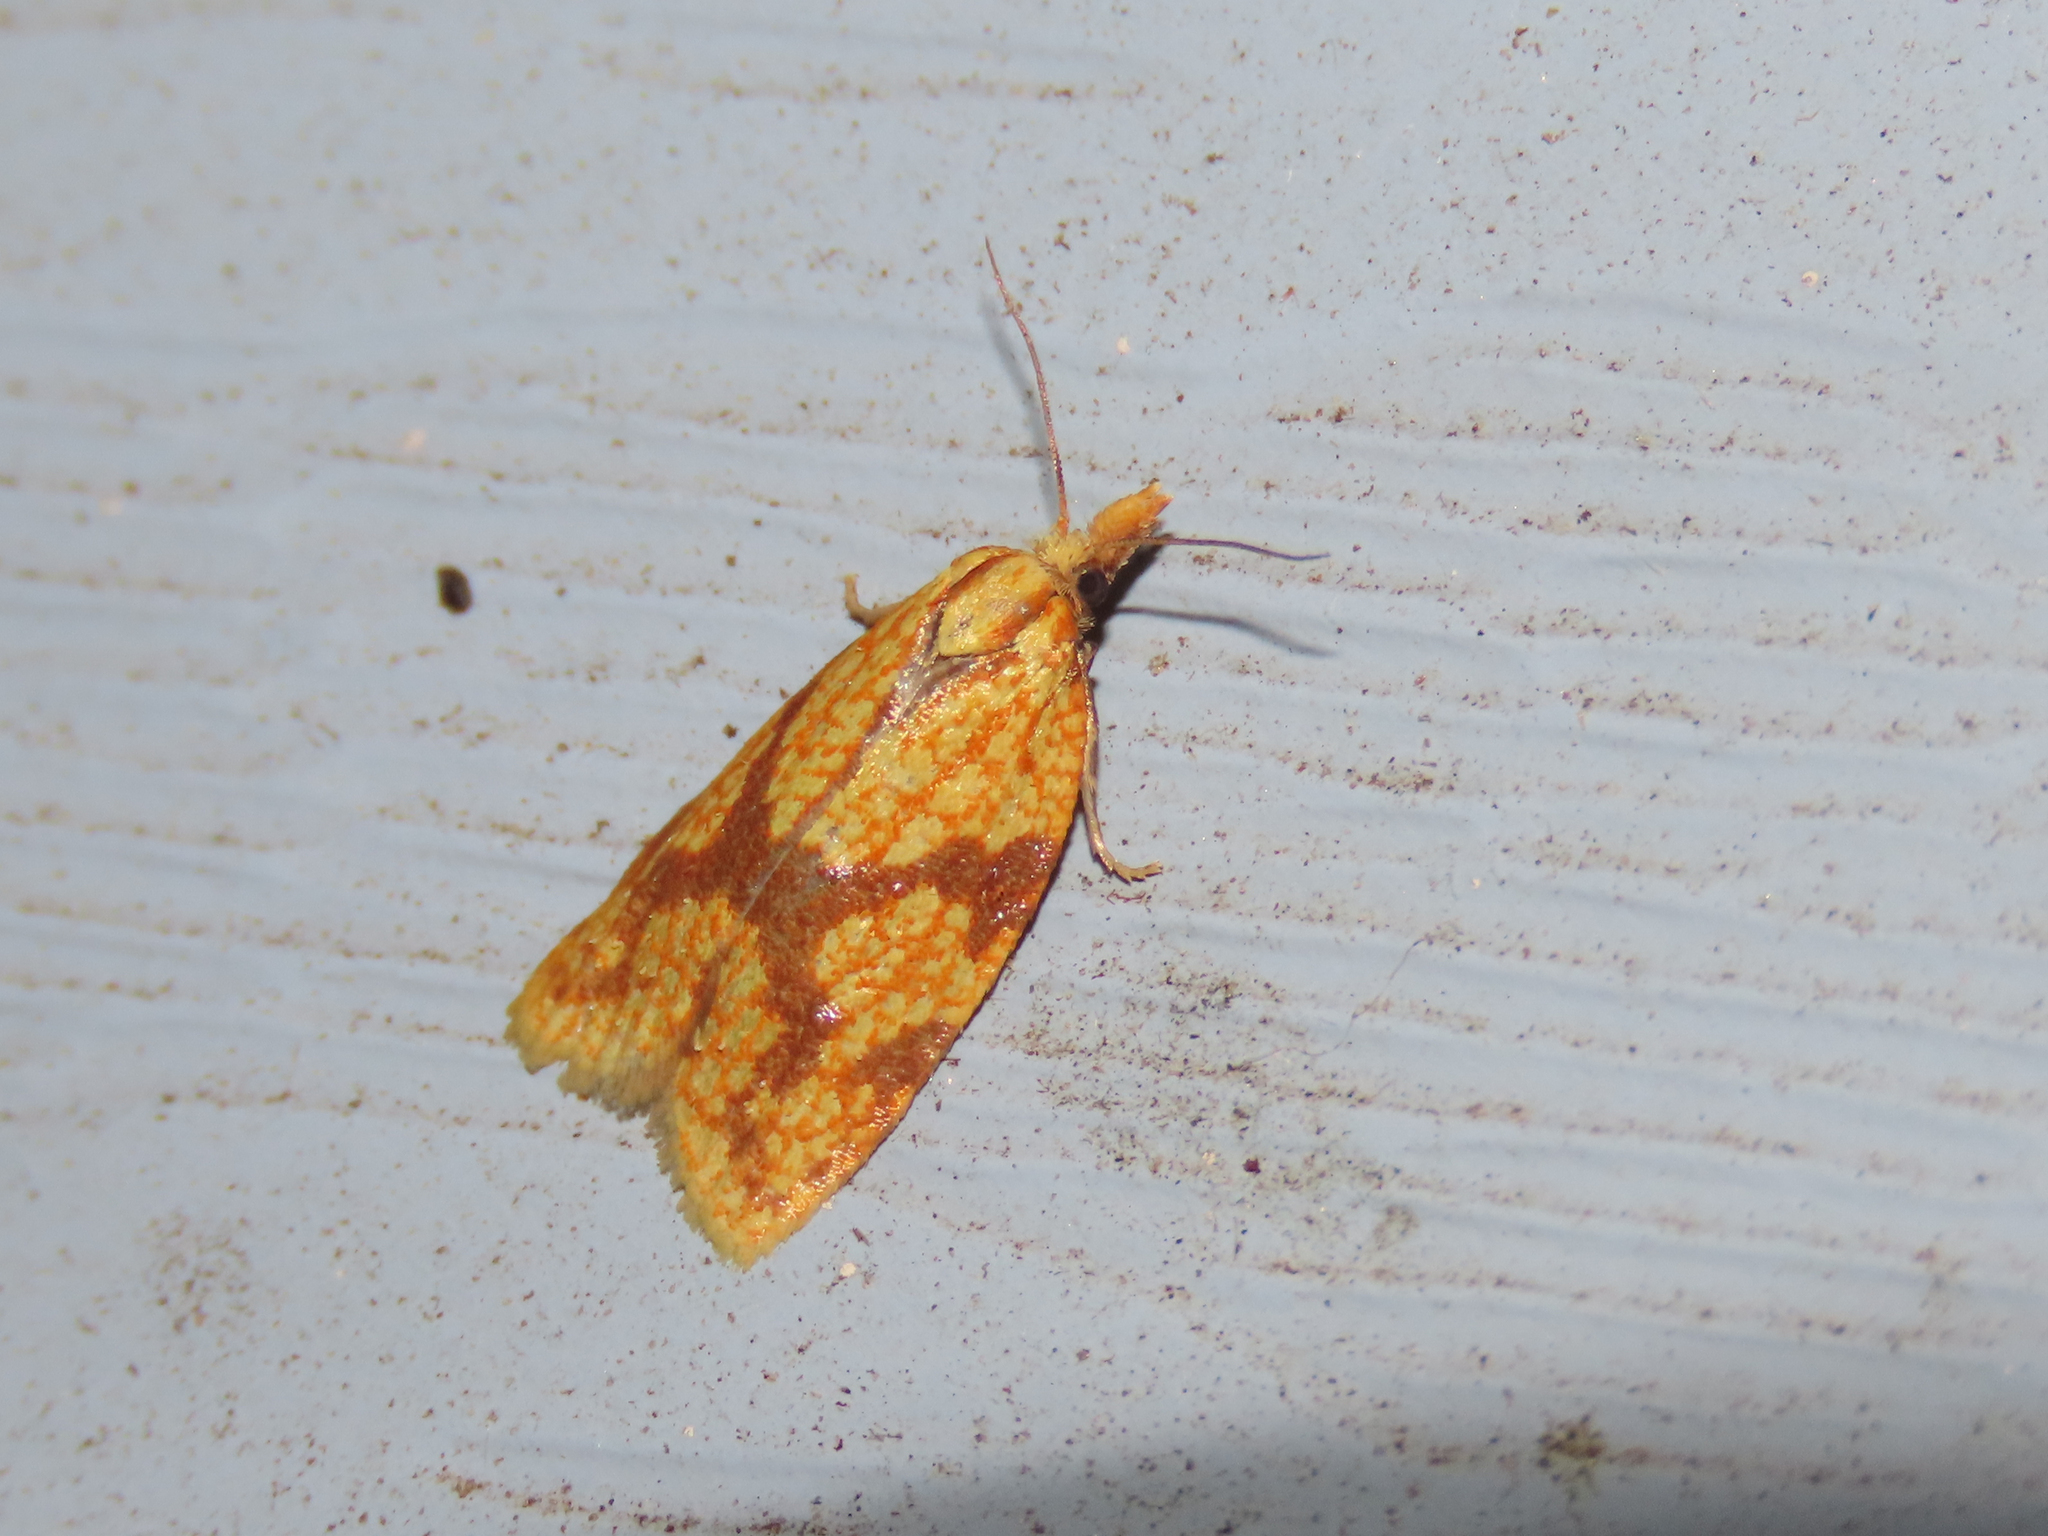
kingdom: Animalia
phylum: Arthropoda
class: Insecta
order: Lepidoptera
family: Tortricidae
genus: Sparganothis
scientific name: Sparganothis sulfureana
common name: Sparganothis fruitworm moth
